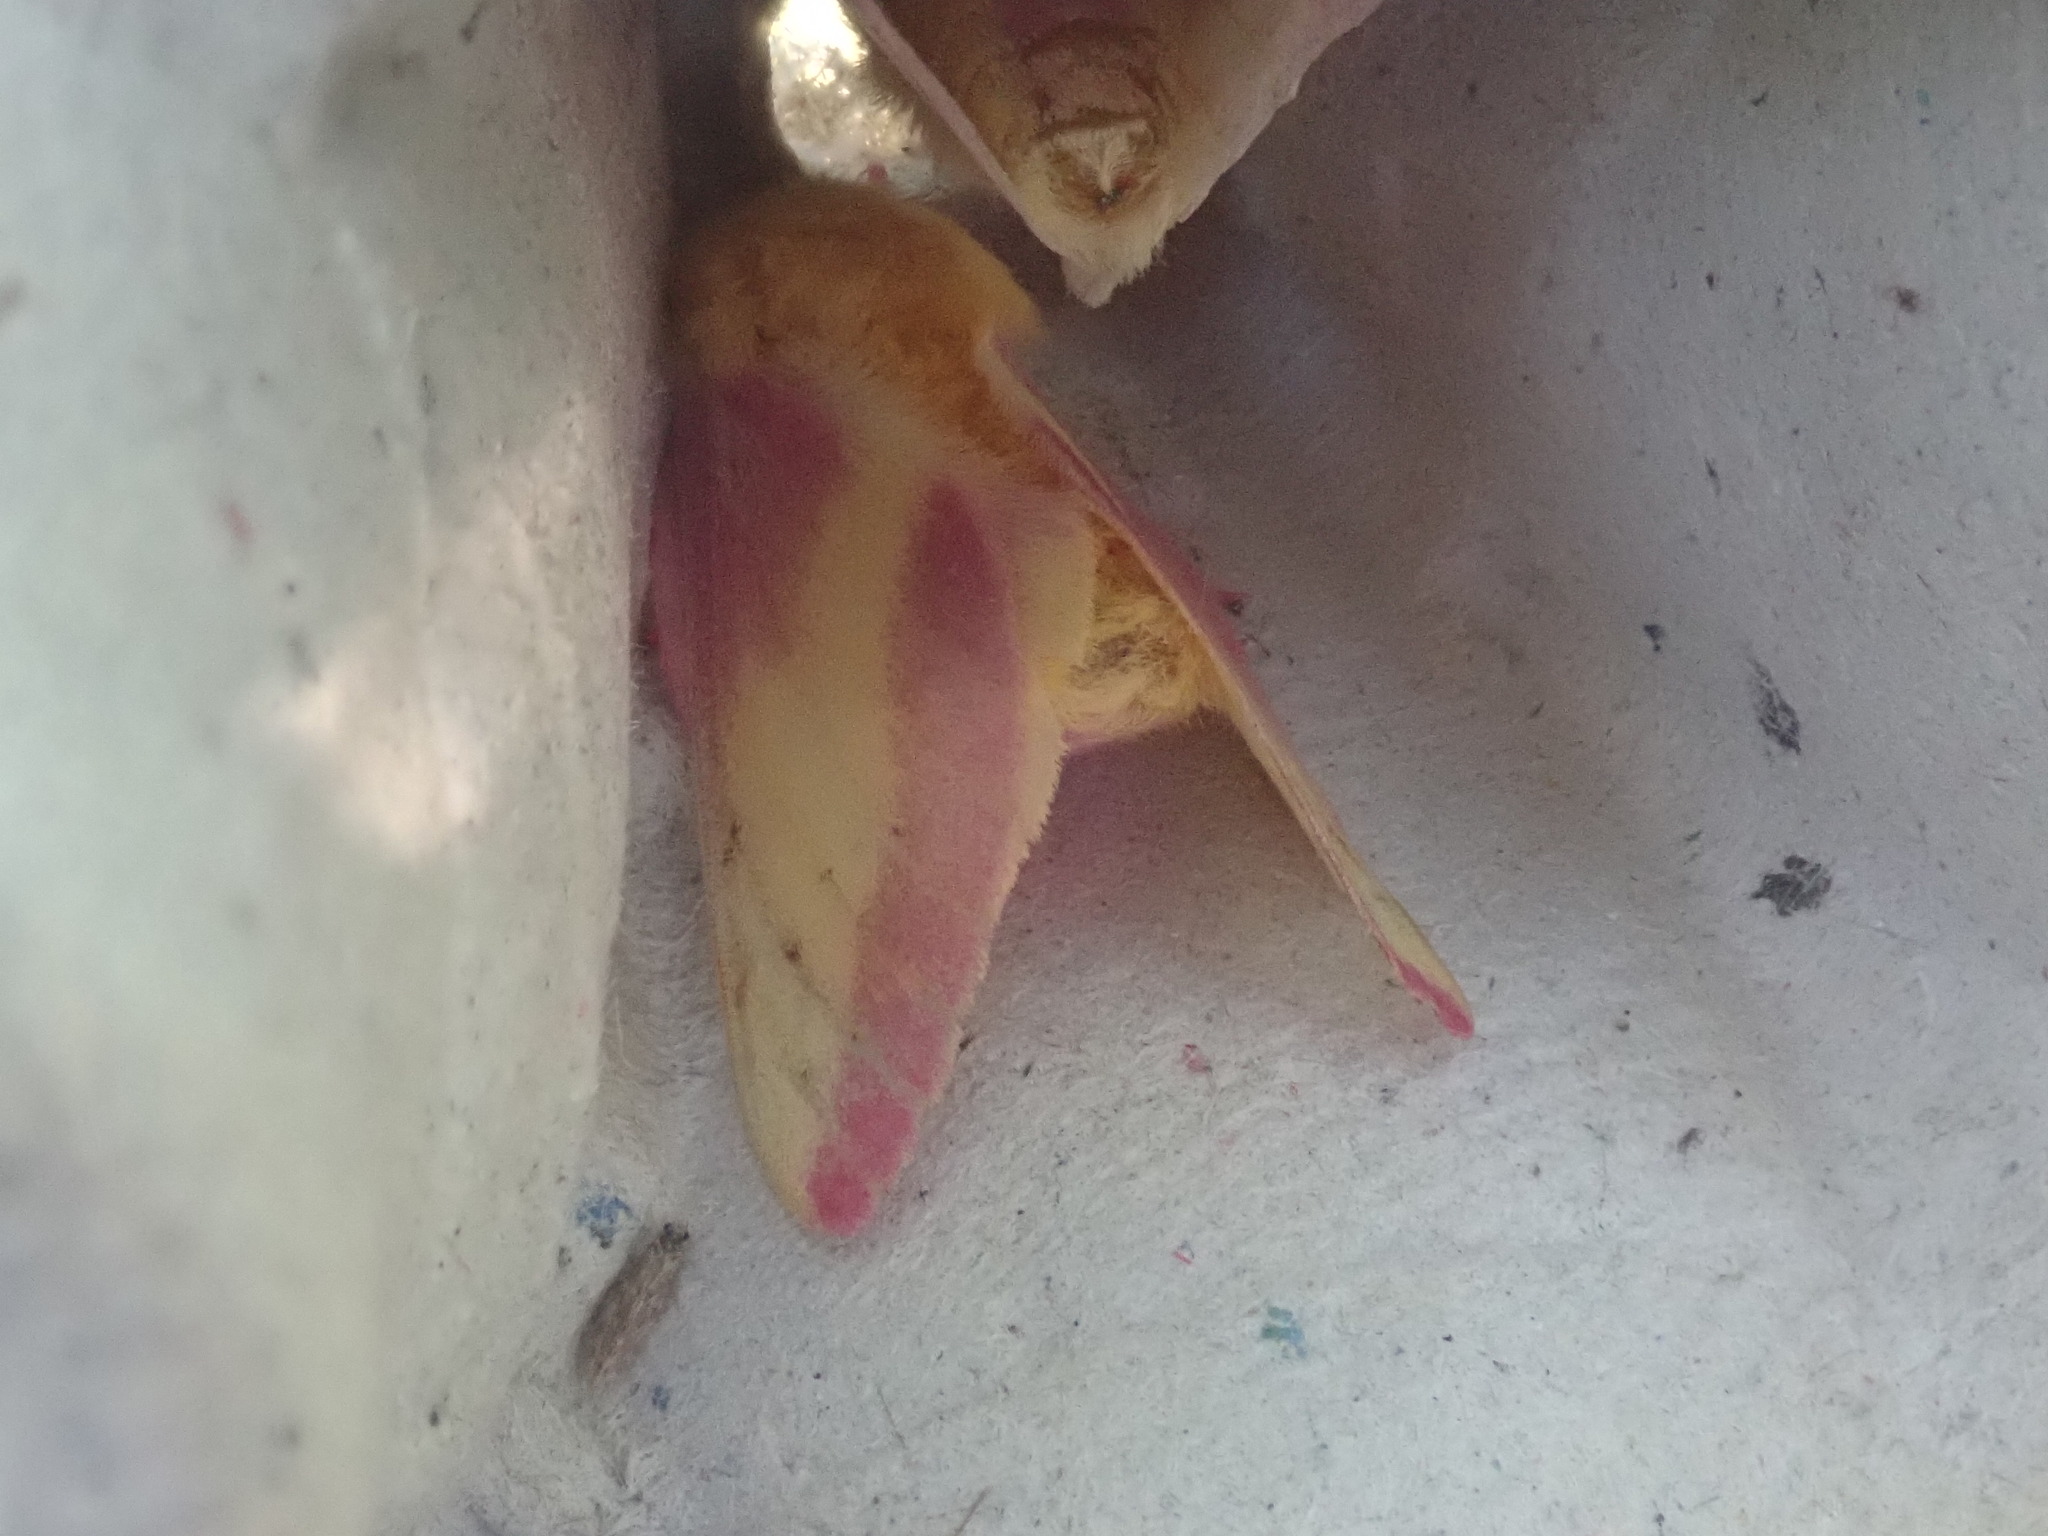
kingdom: Animalia
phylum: Arthropoda
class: Insecta
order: Lepidoptera
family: Saturniidae
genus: Dryocampa
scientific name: Dryocampa rubicunda
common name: Rosy maple moth
